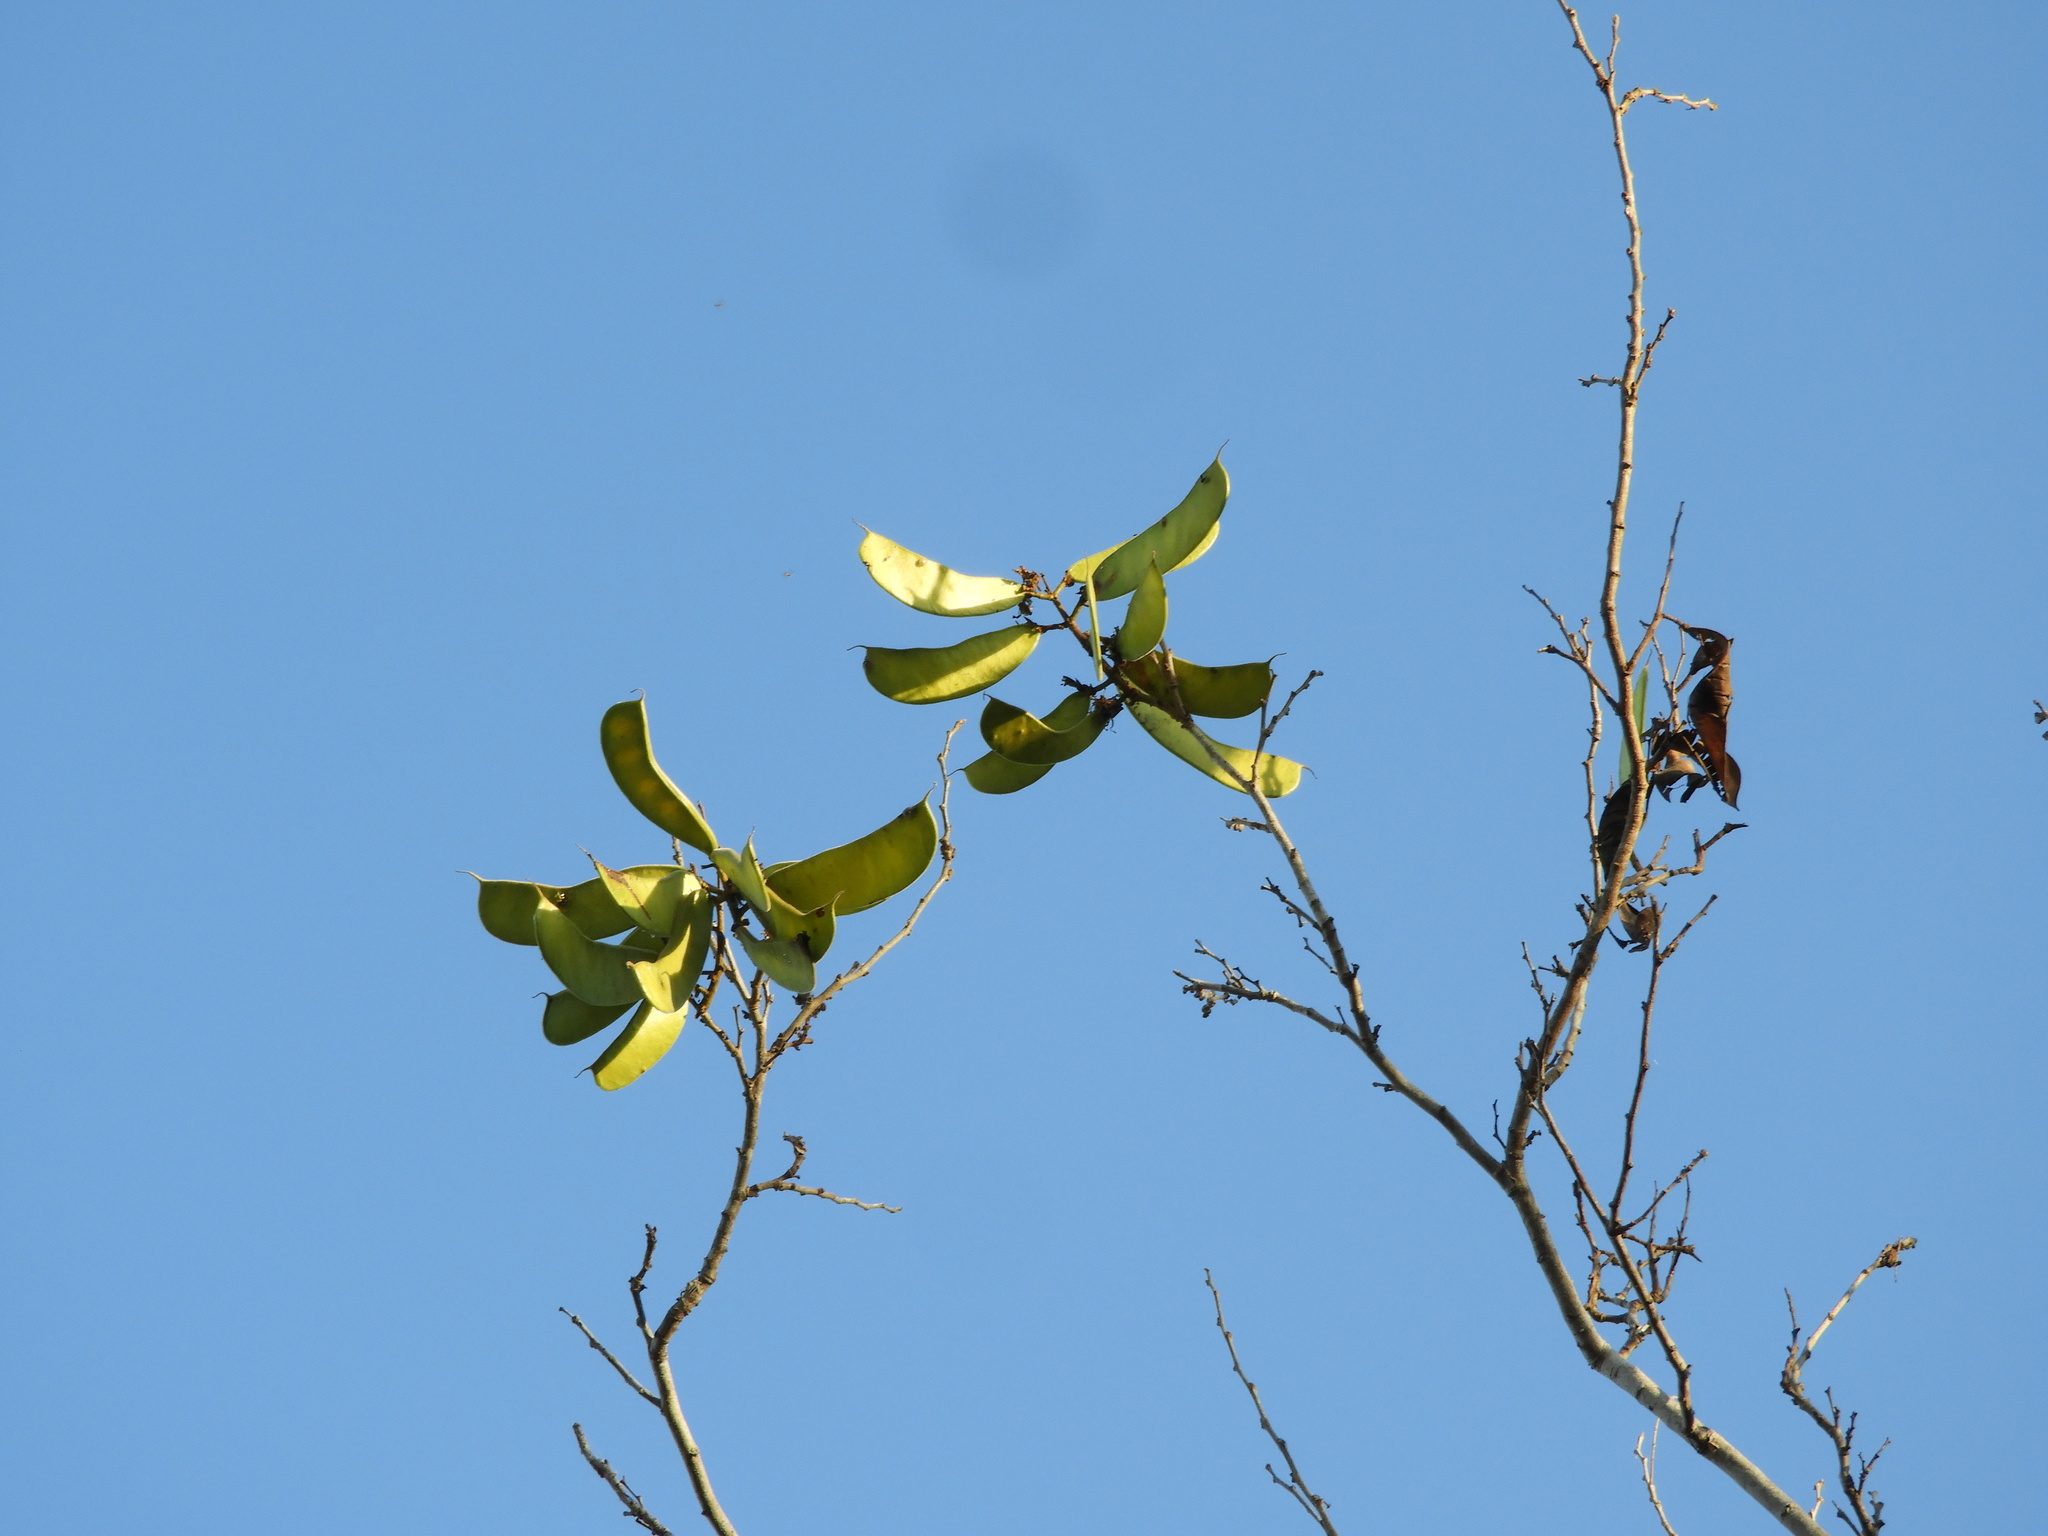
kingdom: Plantae
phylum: Tracheophyta
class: Magnoliopsida
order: Fabales
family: Fabaceae
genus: Cenostigma
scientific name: Cenostigma eriostachys
